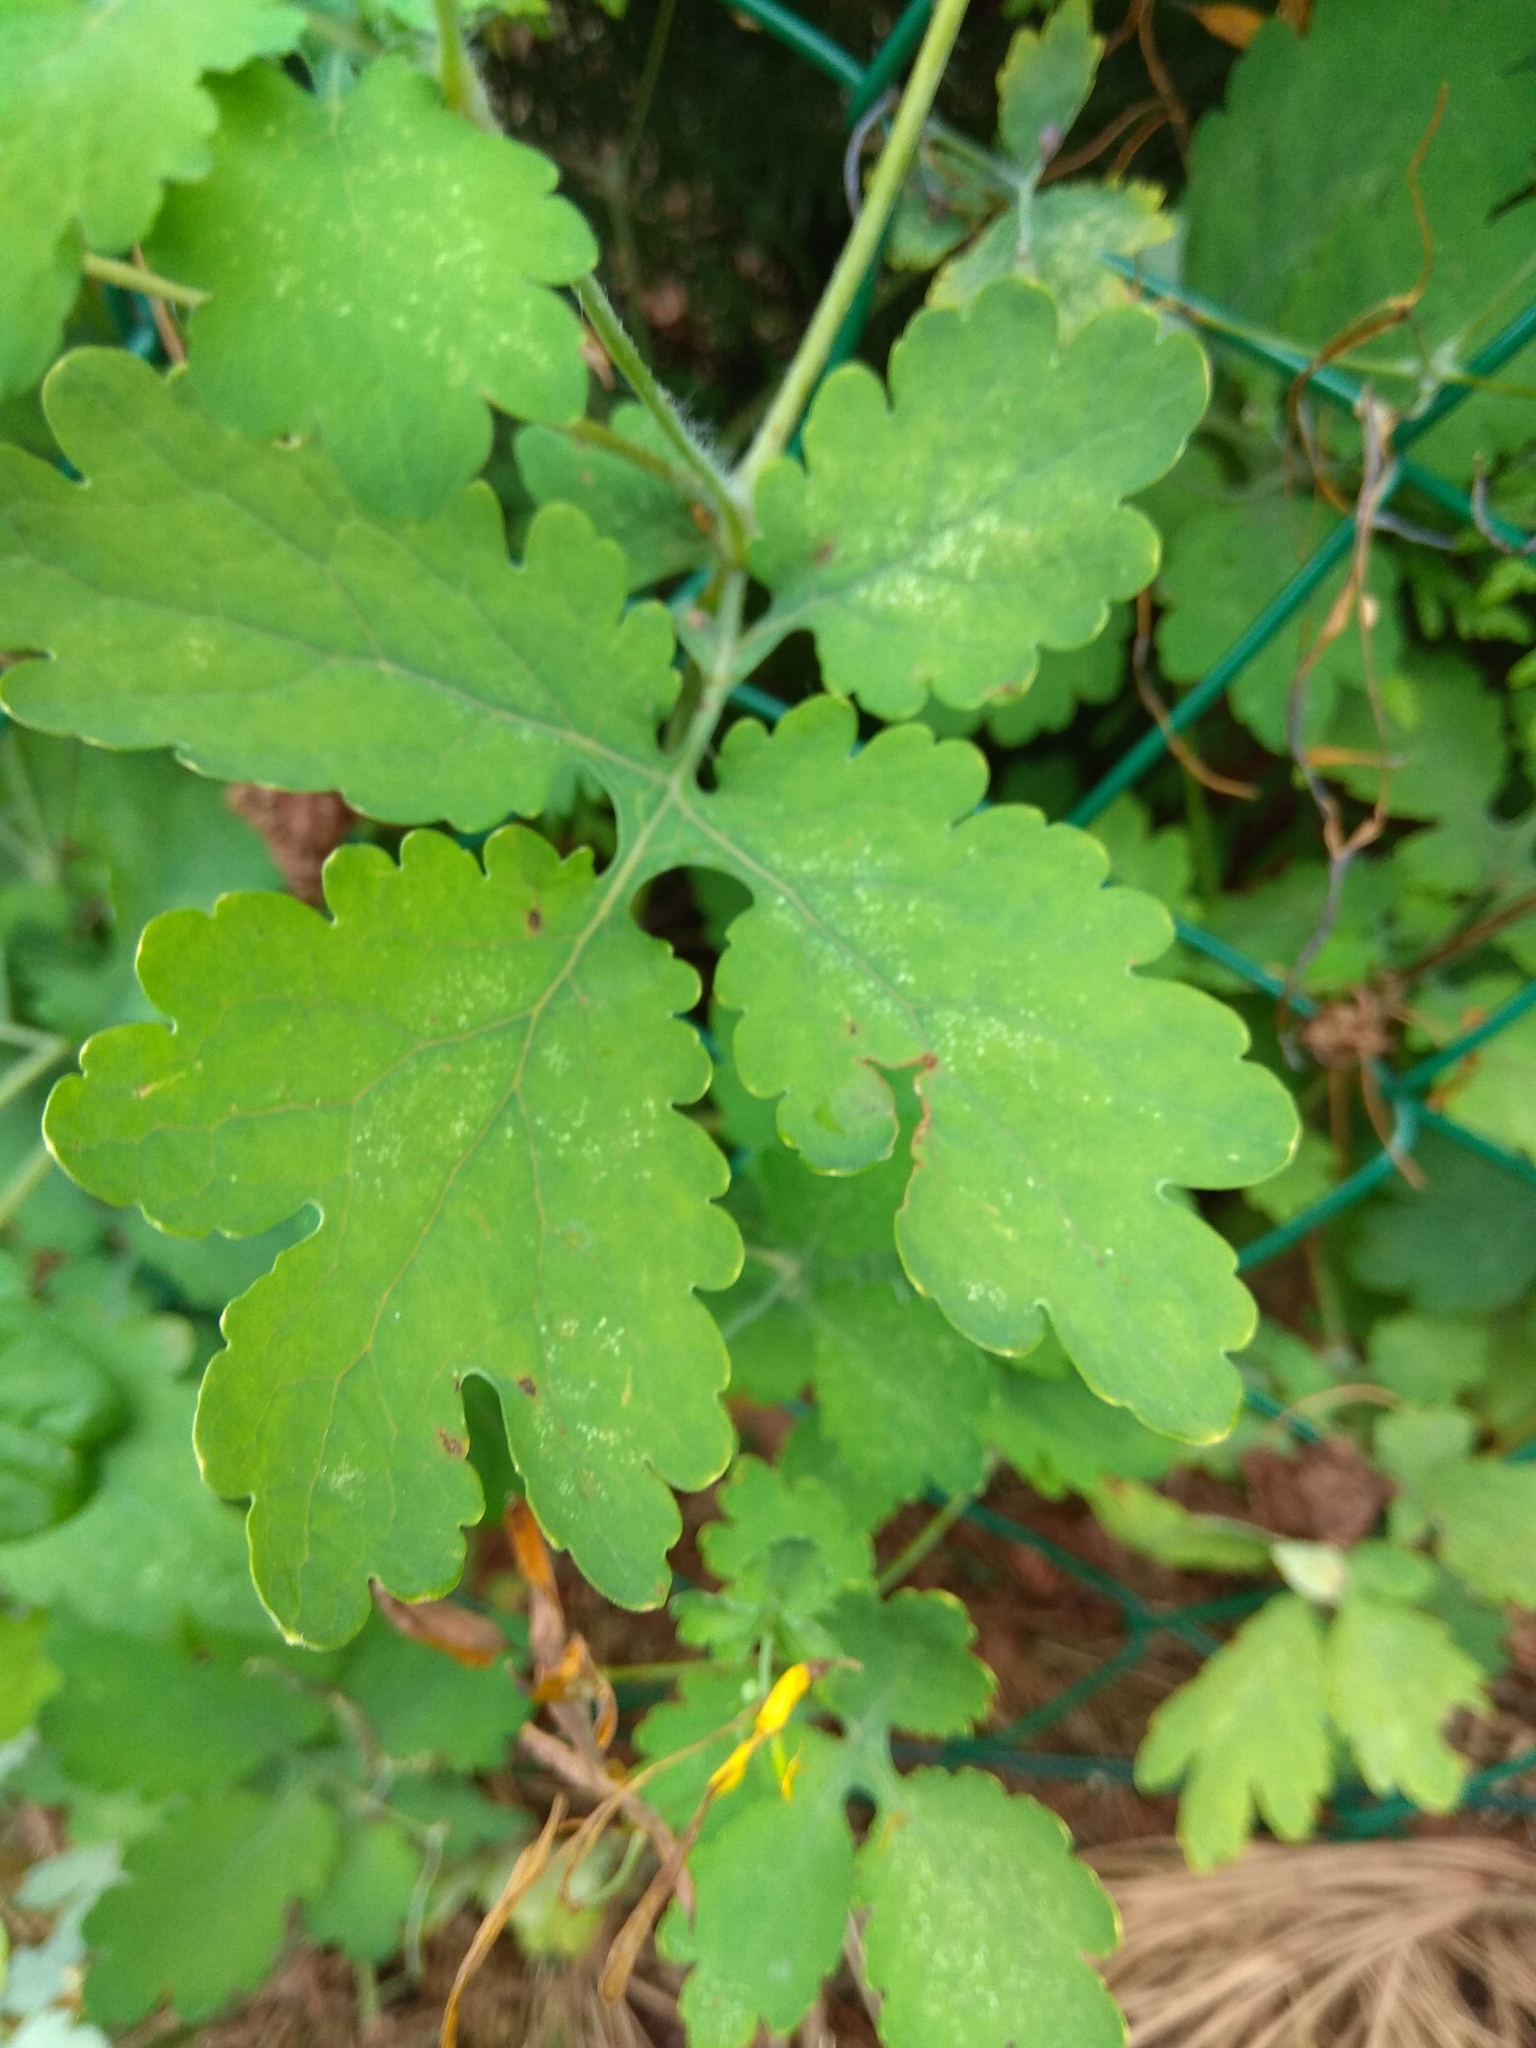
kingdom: Plantae
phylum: Tracheophyta
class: Magnoliopsida
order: Ranunculales
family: Papaveraceae
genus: Chelidonium
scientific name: Chelidonium majus
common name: Greater celandine
